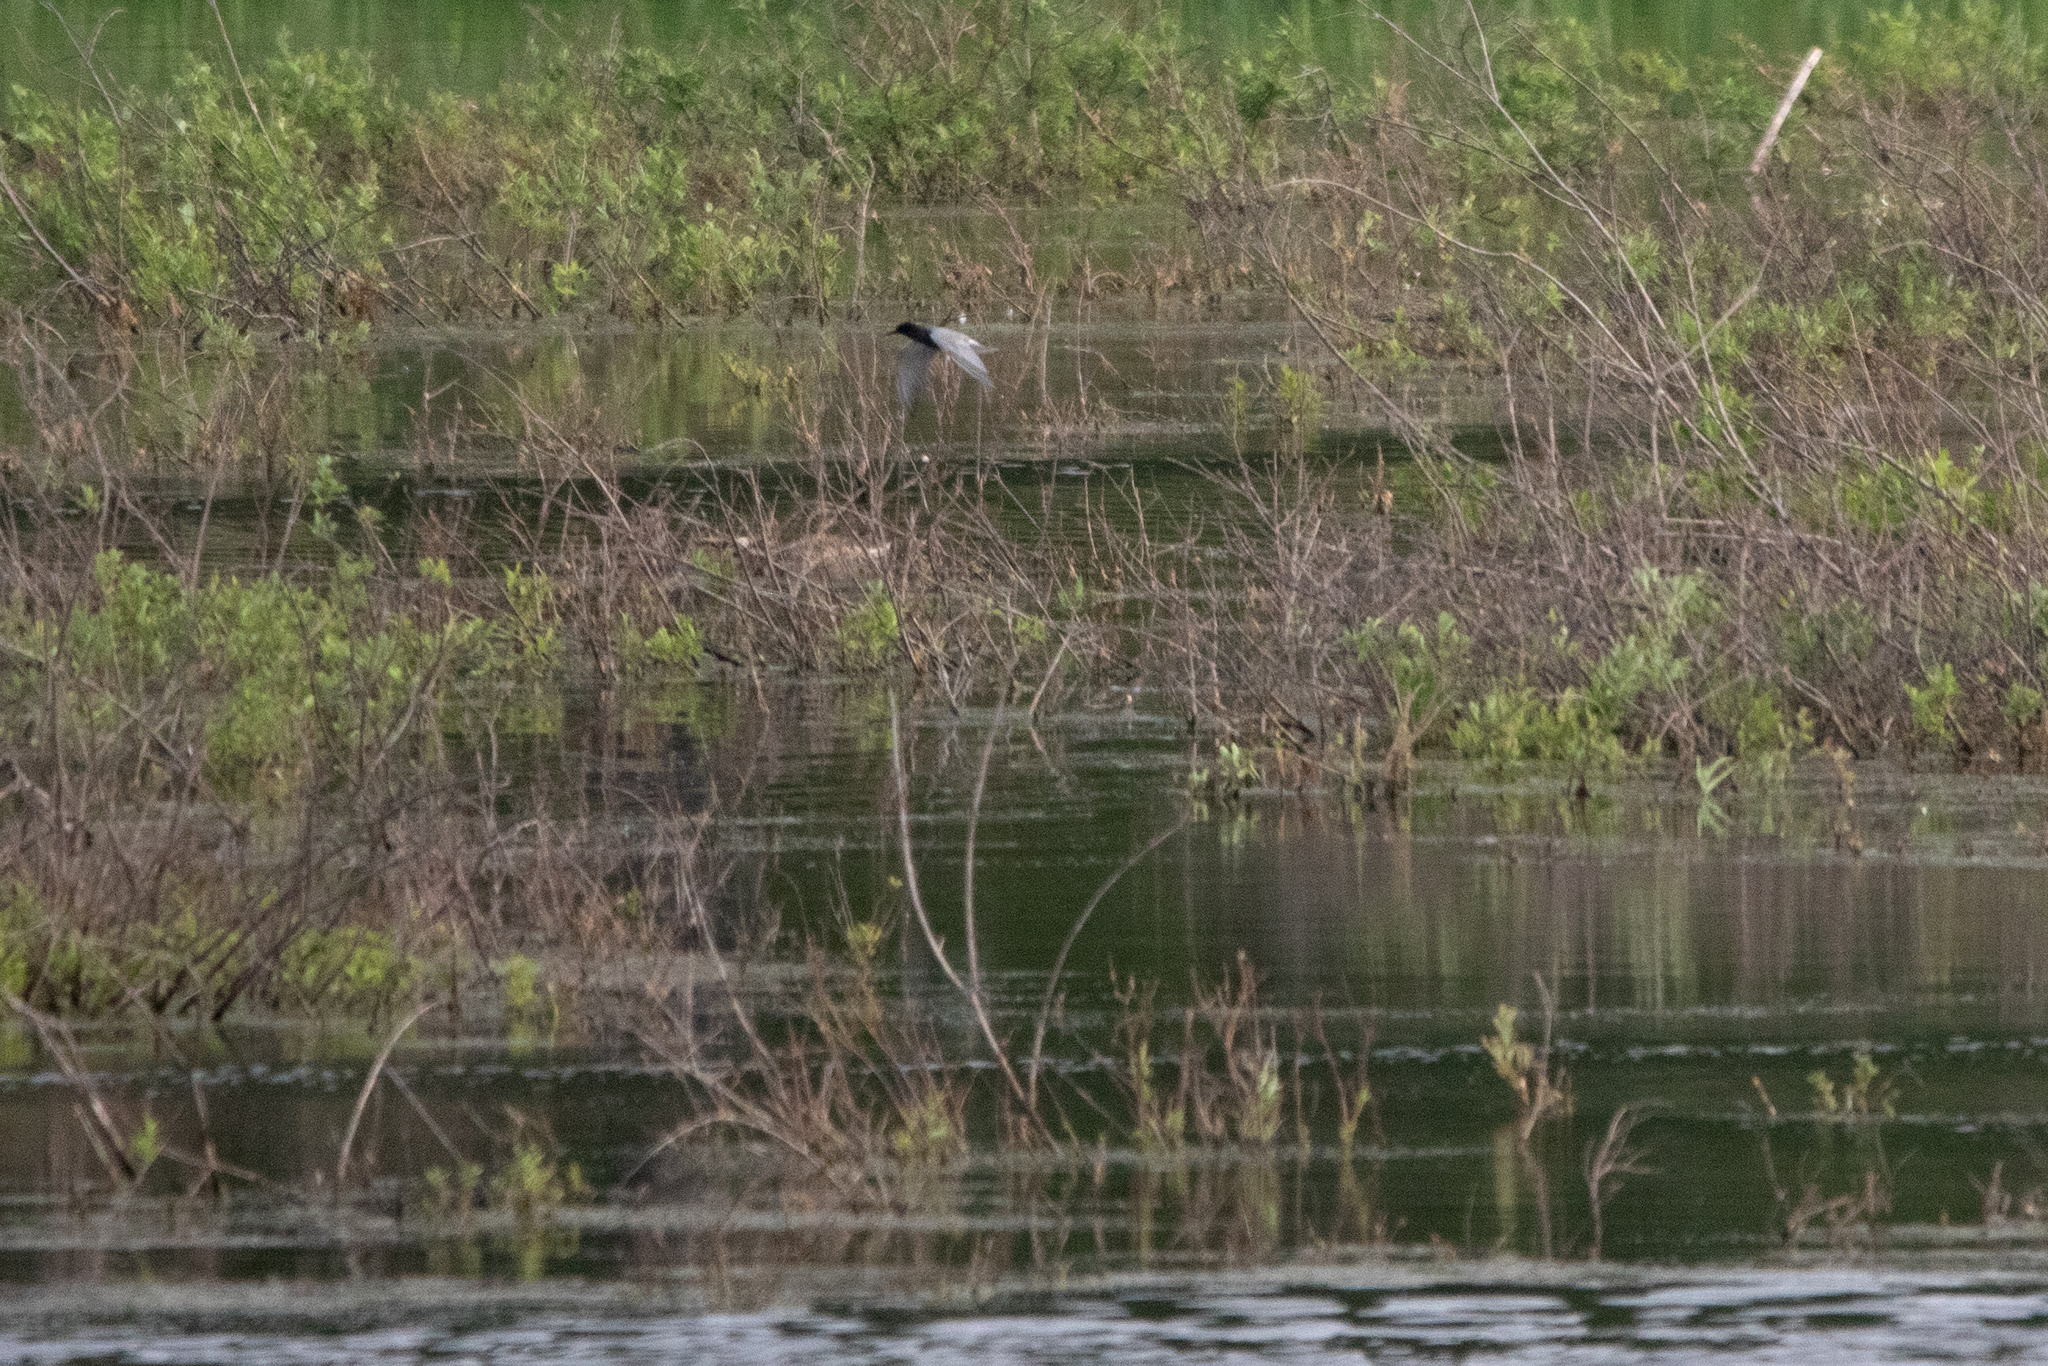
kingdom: Animalia
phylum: Chordata
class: Aves
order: Charadriiformes
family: Laridae
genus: Chlidonias
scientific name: Chlidonias niger
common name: Black tern
